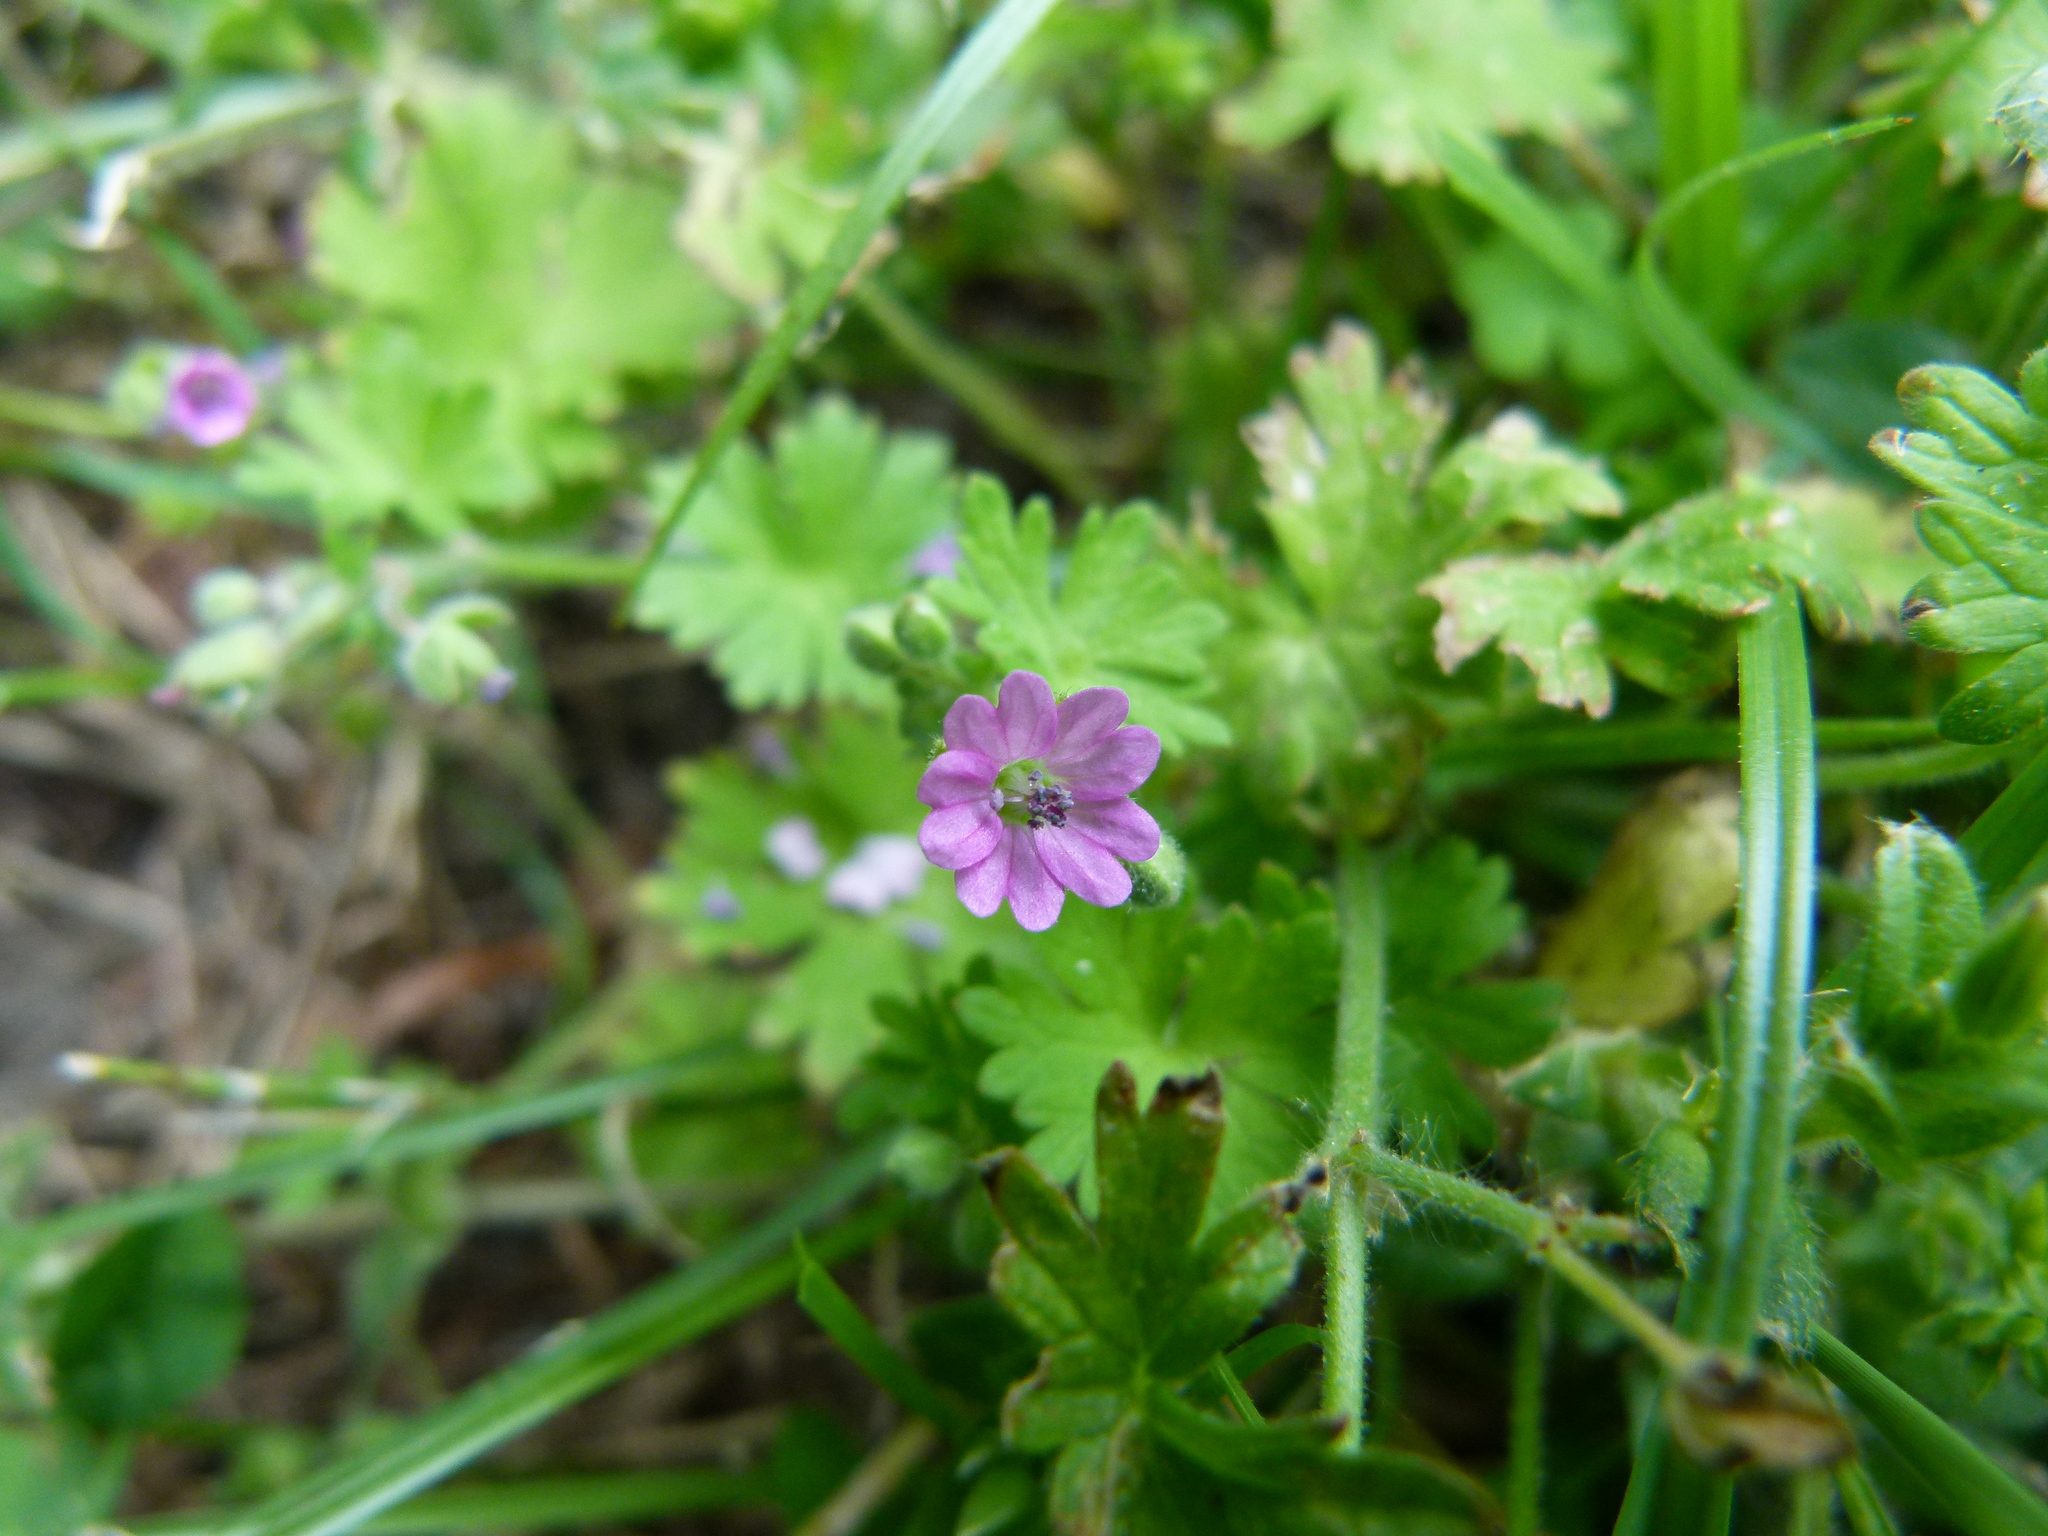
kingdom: Plantae
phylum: Tracheophyta
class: Magnoliopsida
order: Geraniales
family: Geraniaceae
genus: Geranium
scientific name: Geranium molle
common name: Dove's-foot crane's-bill
